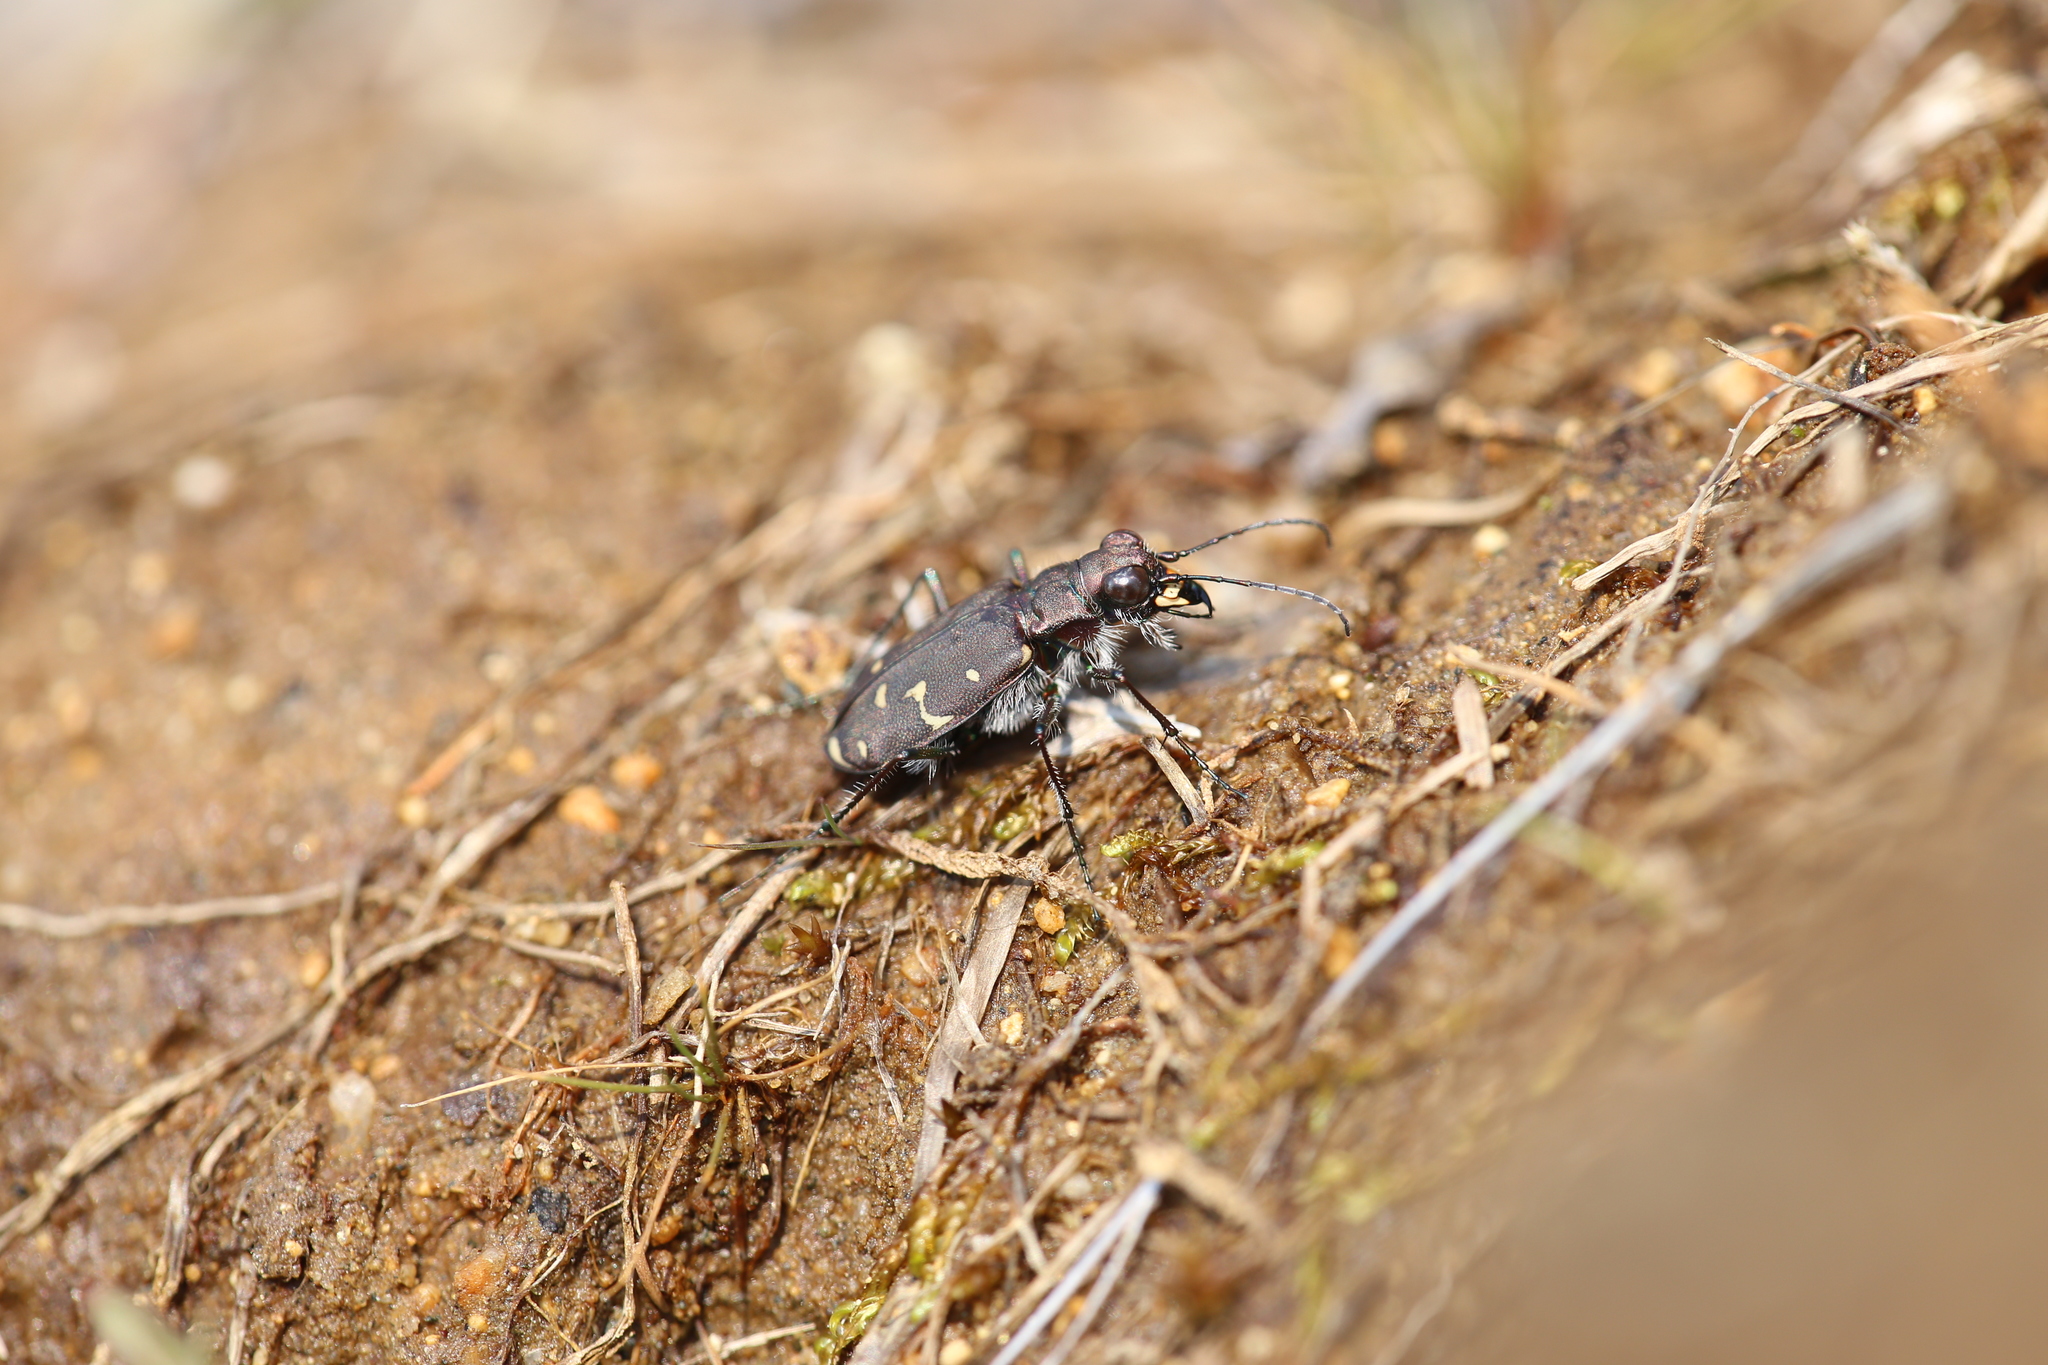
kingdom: Animalia
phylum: Arthropoda
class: Insecta
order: Coleoptera
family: Carabidae
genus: Cicindela
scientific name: Cicindela duodecimguttata
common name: Twelve-spotted tiger beetle
